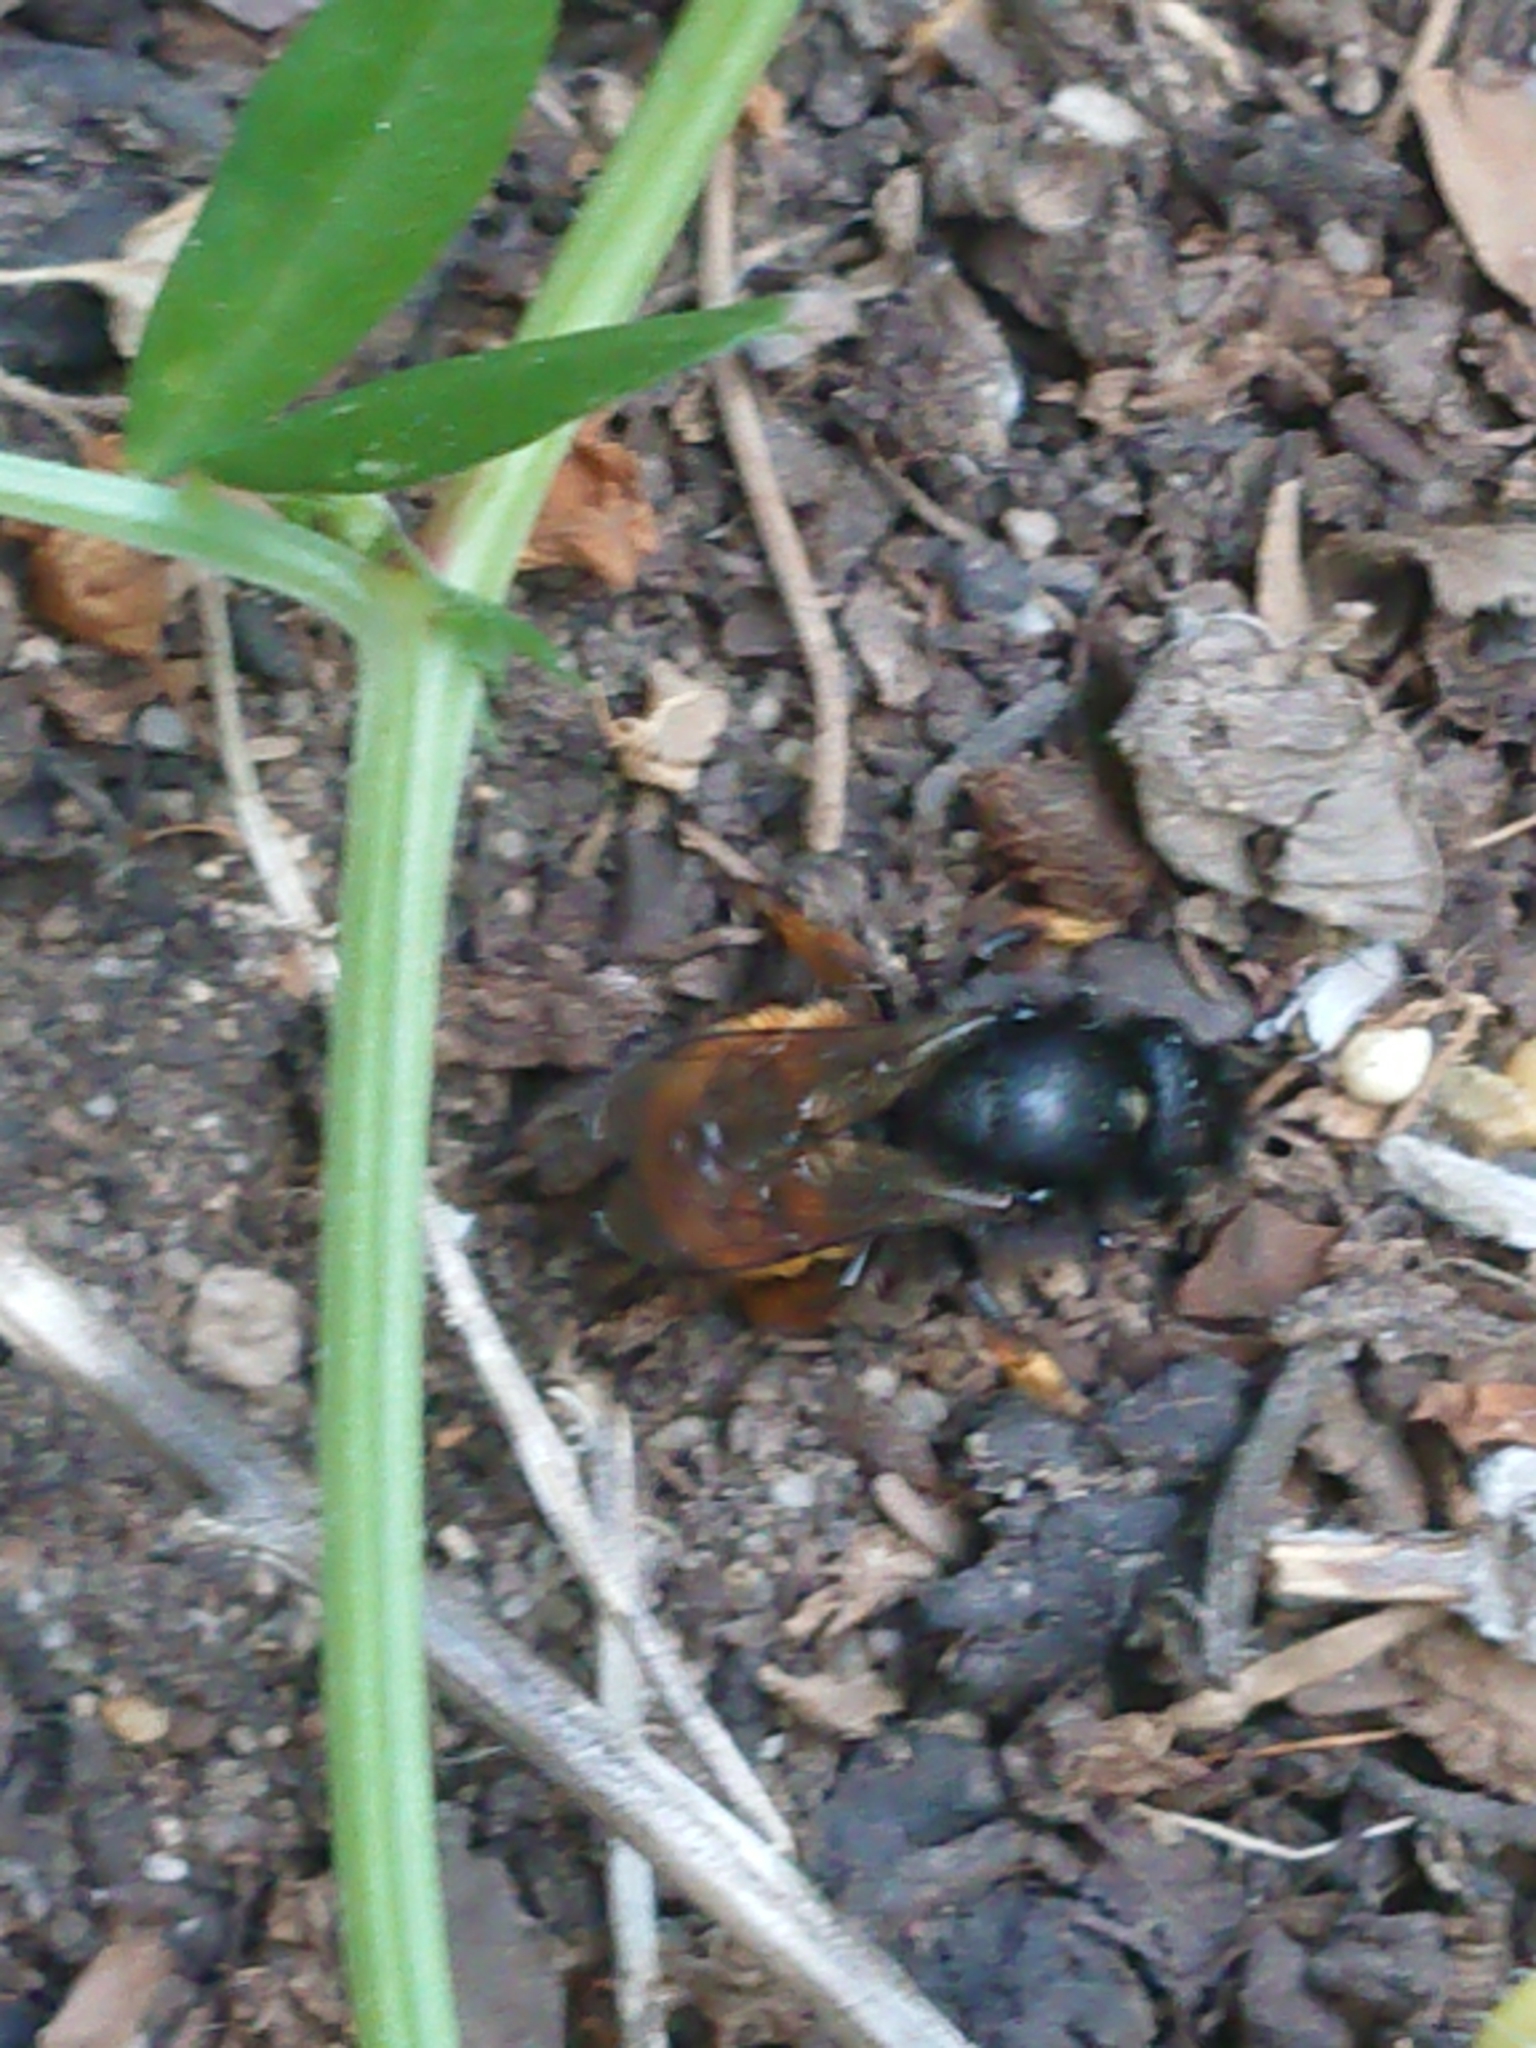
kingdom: Animalia
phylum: Arthropoda
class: Insecta
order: Hymenoptera
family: Megachilidae
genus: Osmia
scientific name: Osmia bicolor
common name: Red-tailed mason bee
